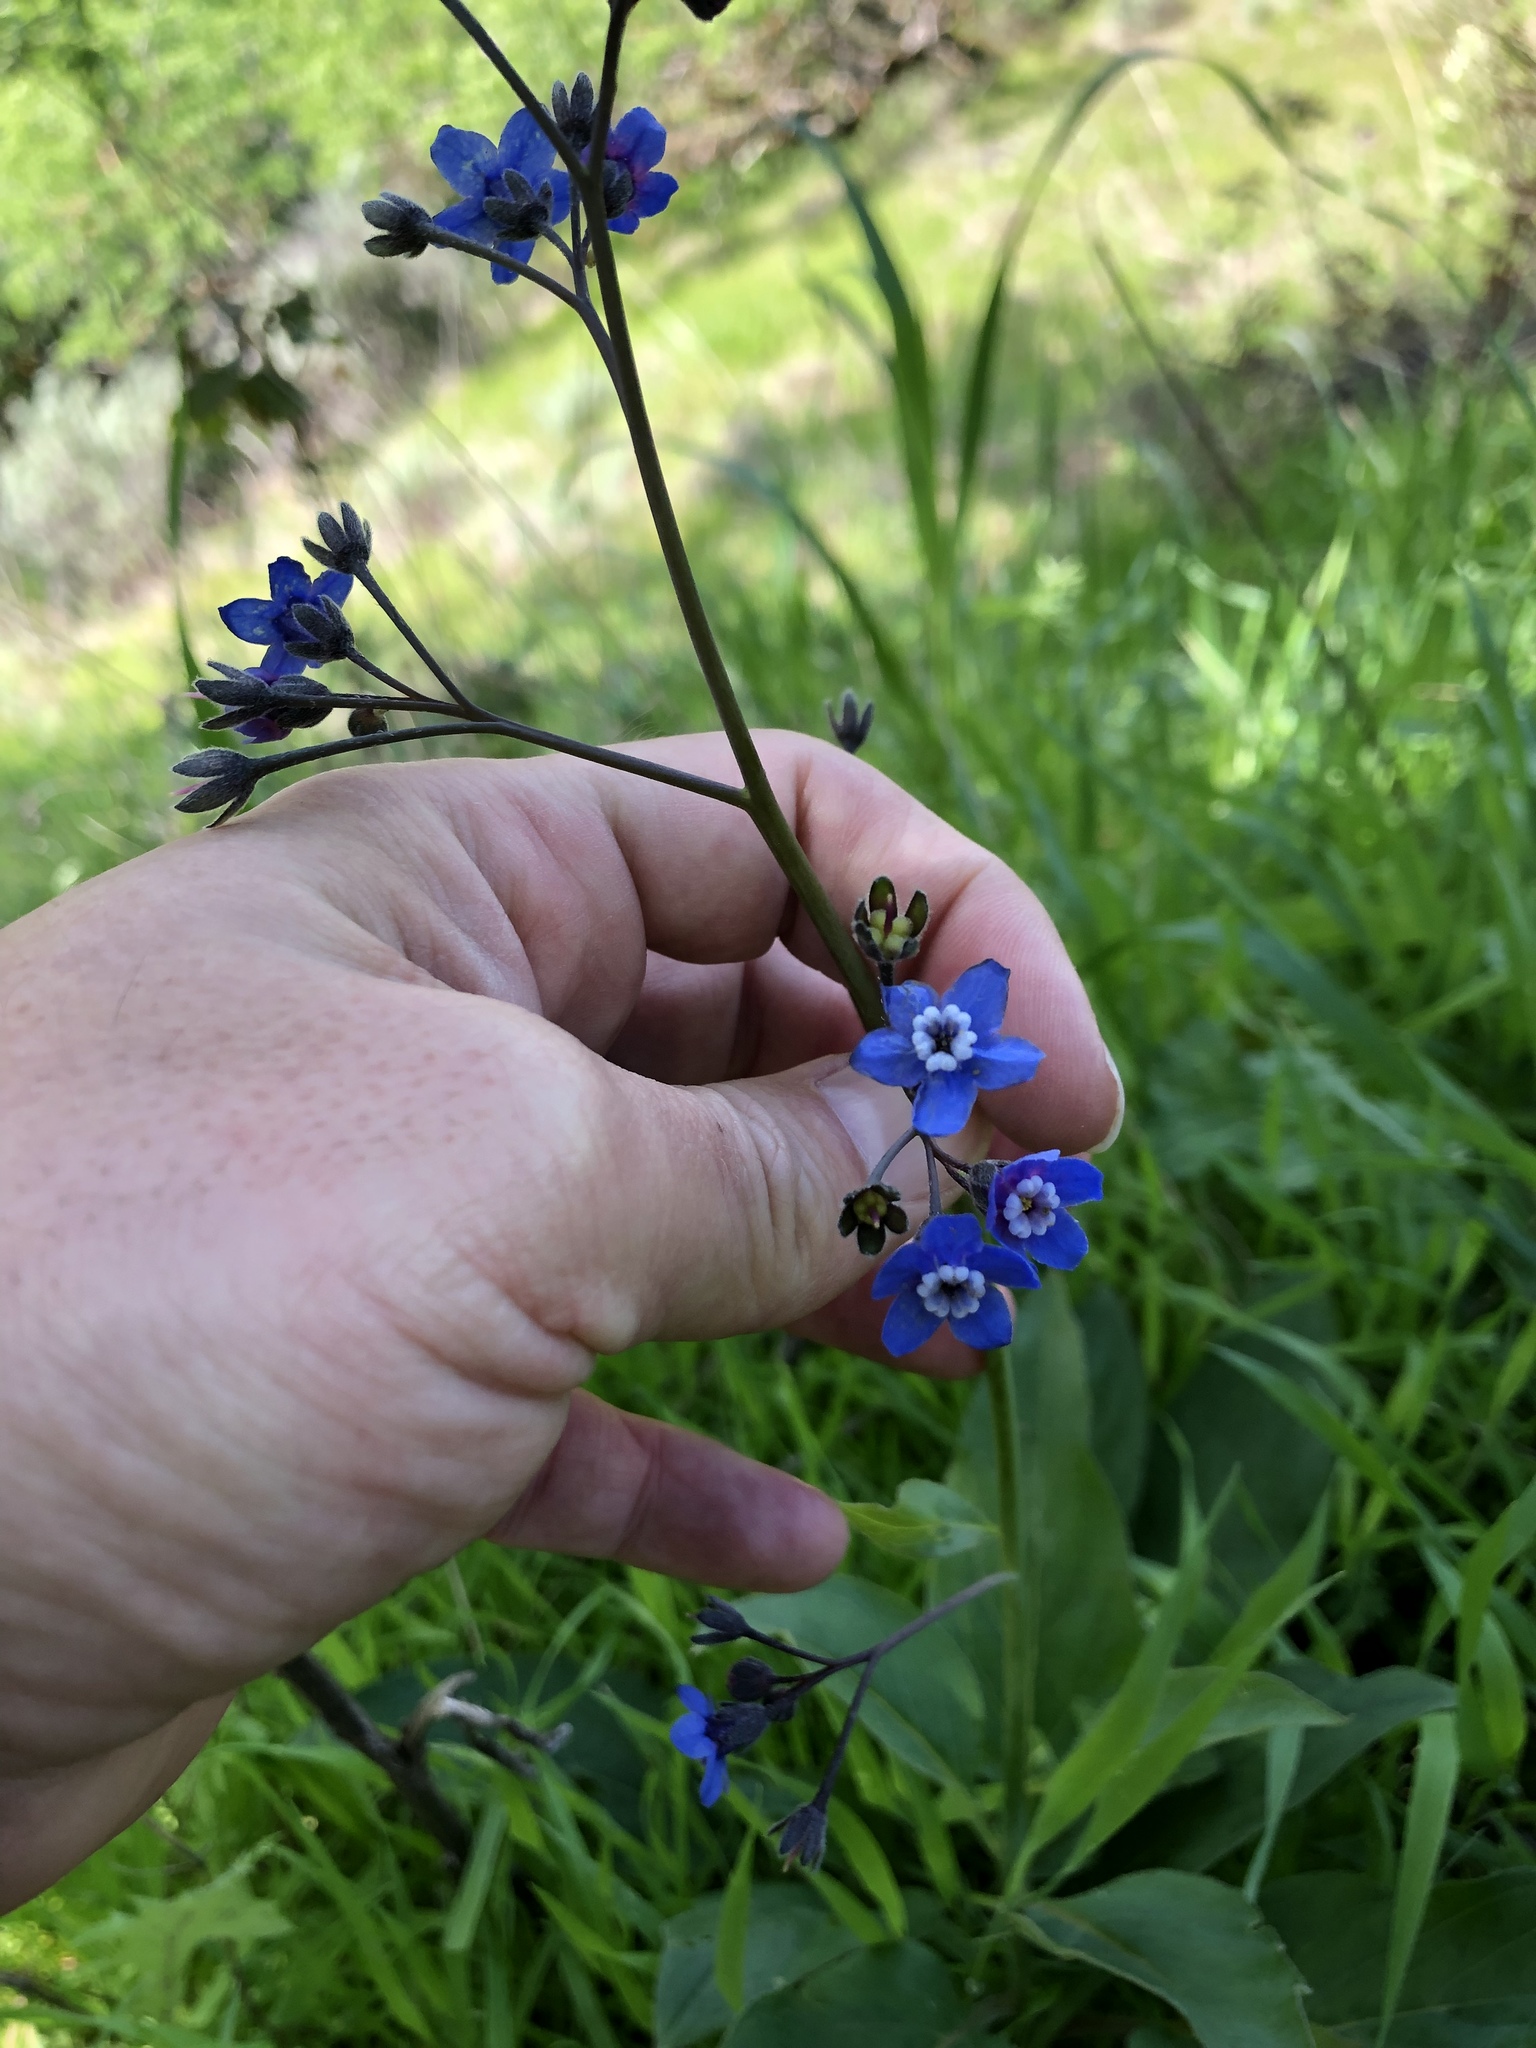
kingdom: Plantae
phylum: Tracheophyta
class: Magnoliopsida
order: Boraginales
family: Boraginaceae
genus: Adelinia
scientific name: Adelinia grande
